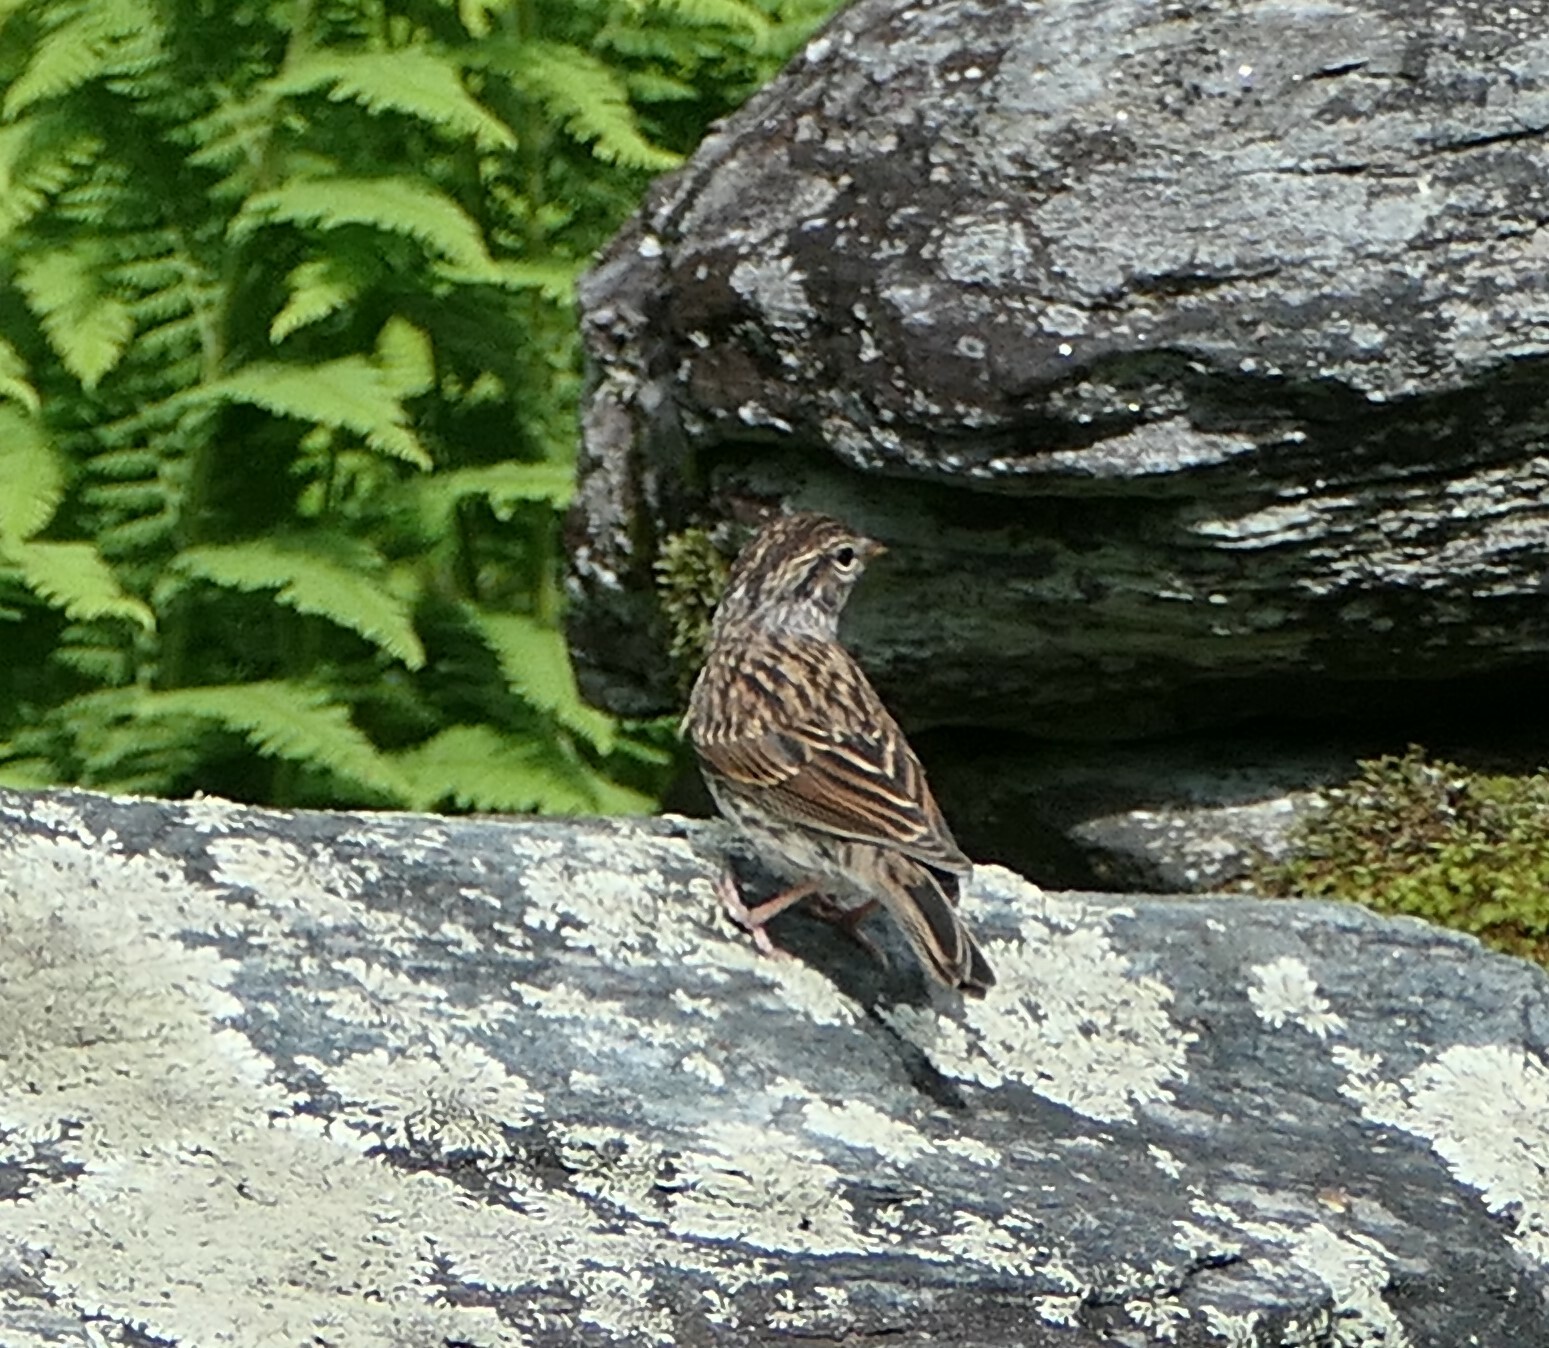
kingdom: Animalia
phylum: Chordata
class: Aves
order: Passeriformes
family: Passerellidae
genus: Spizella
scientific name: Spizella passerina
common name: Chipping sparrow
